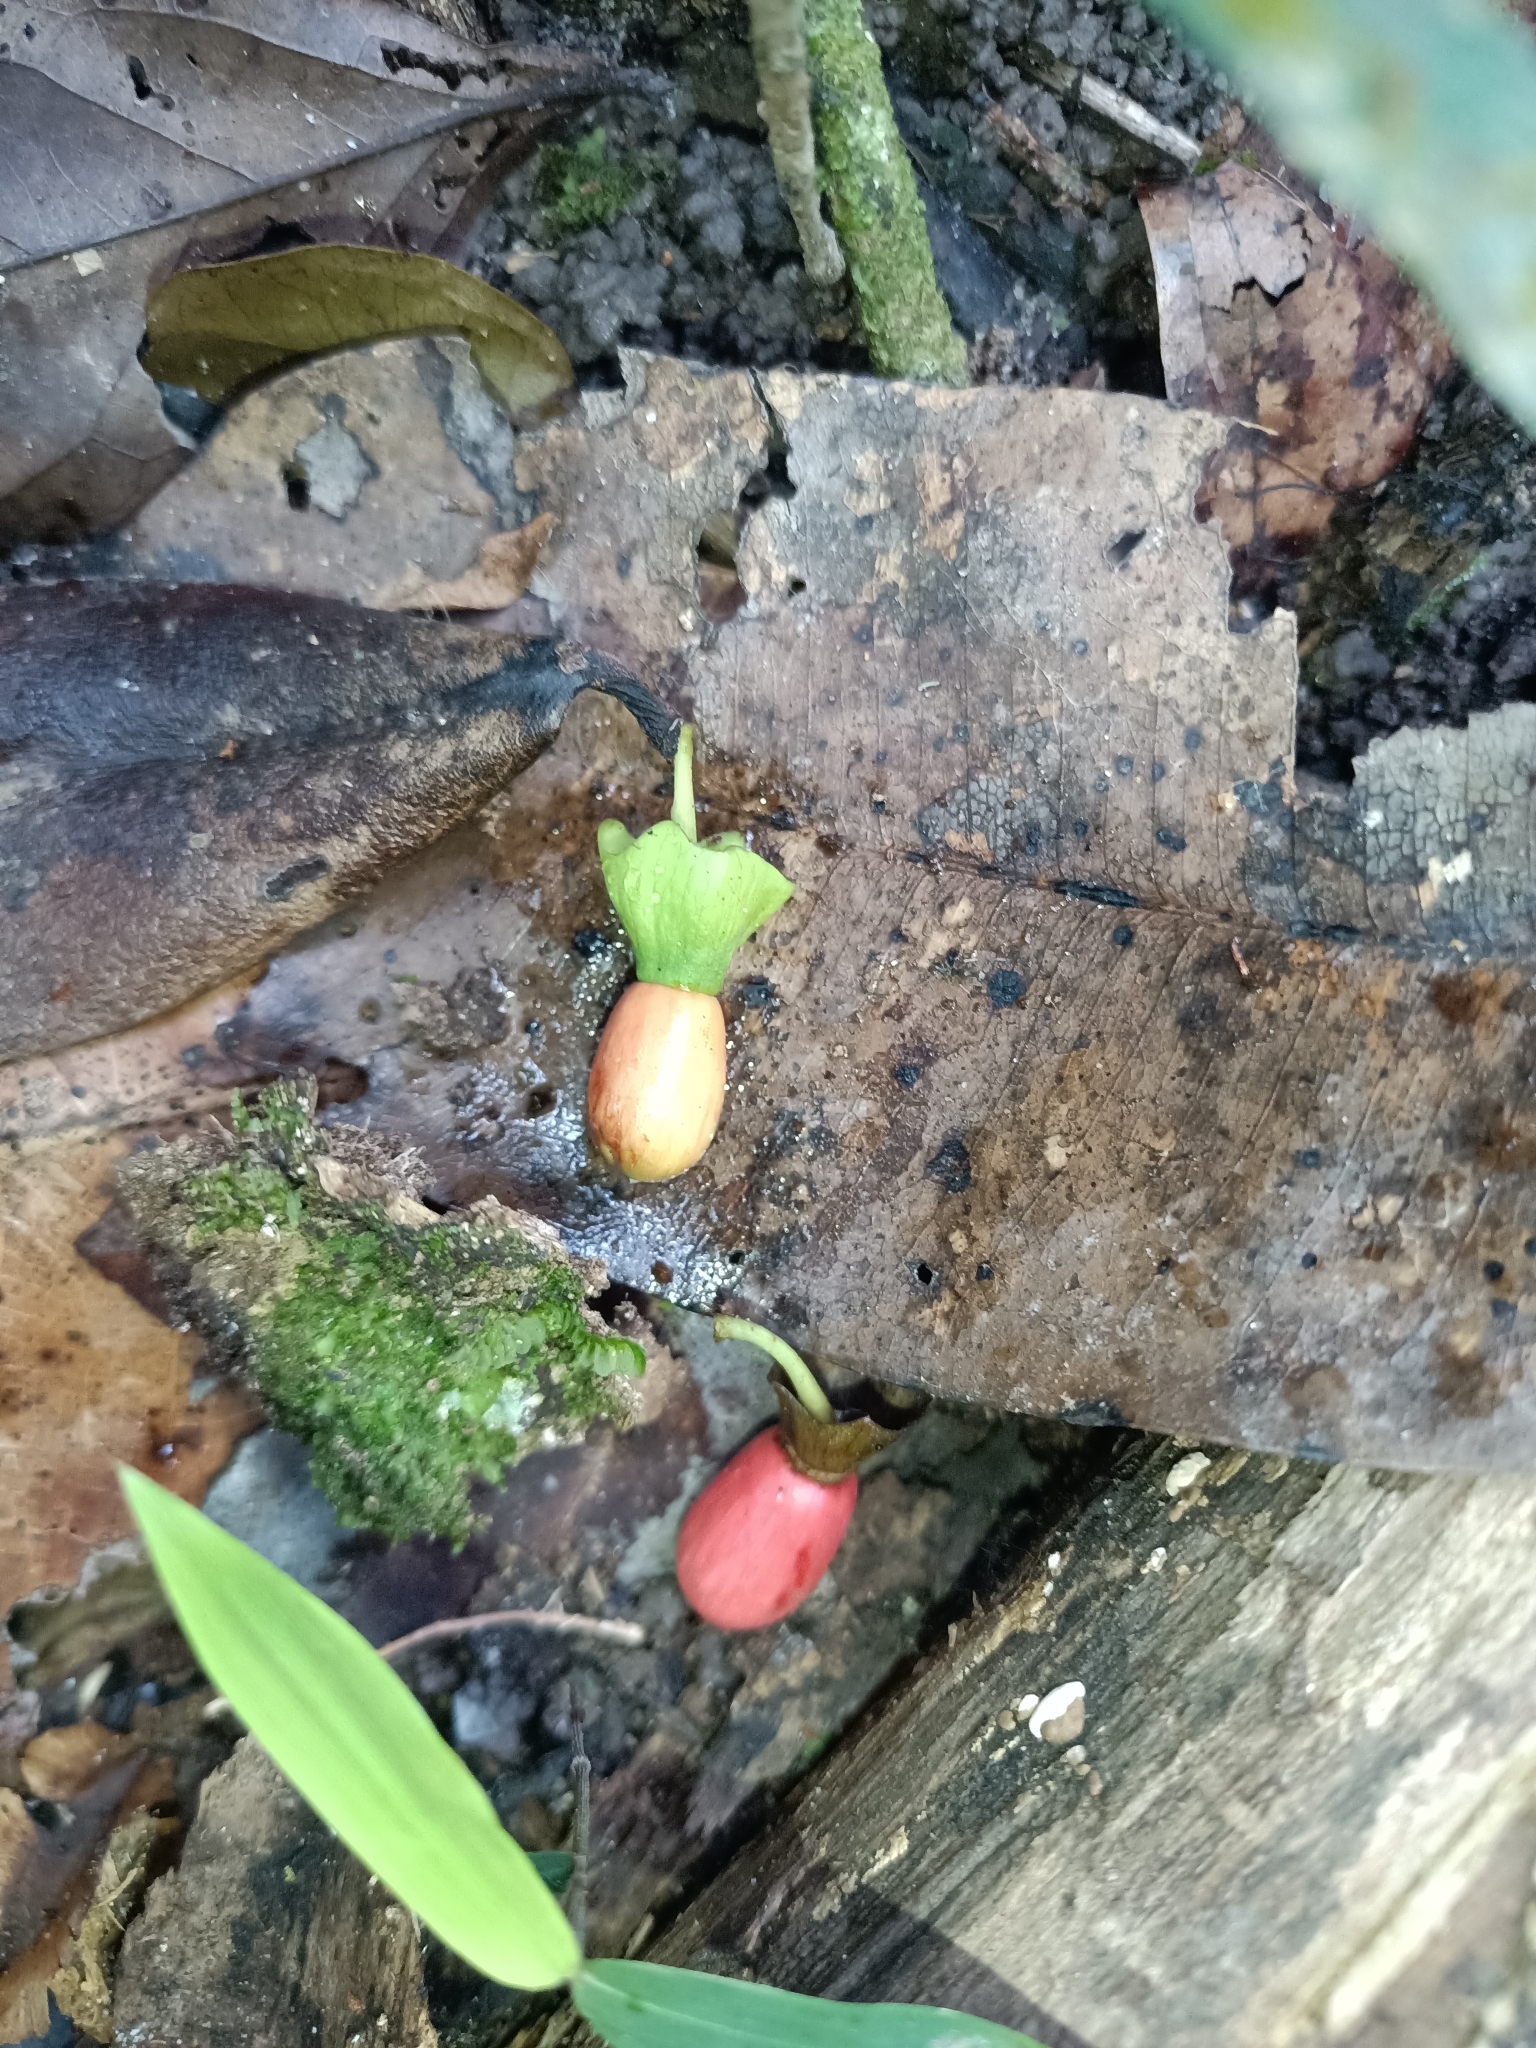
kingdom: Plantae
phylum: Tracheophyta
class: Magnoliopsida
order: Santalales
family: Erythropalaceae
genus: Heisteria
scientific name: Heisteria scandens
